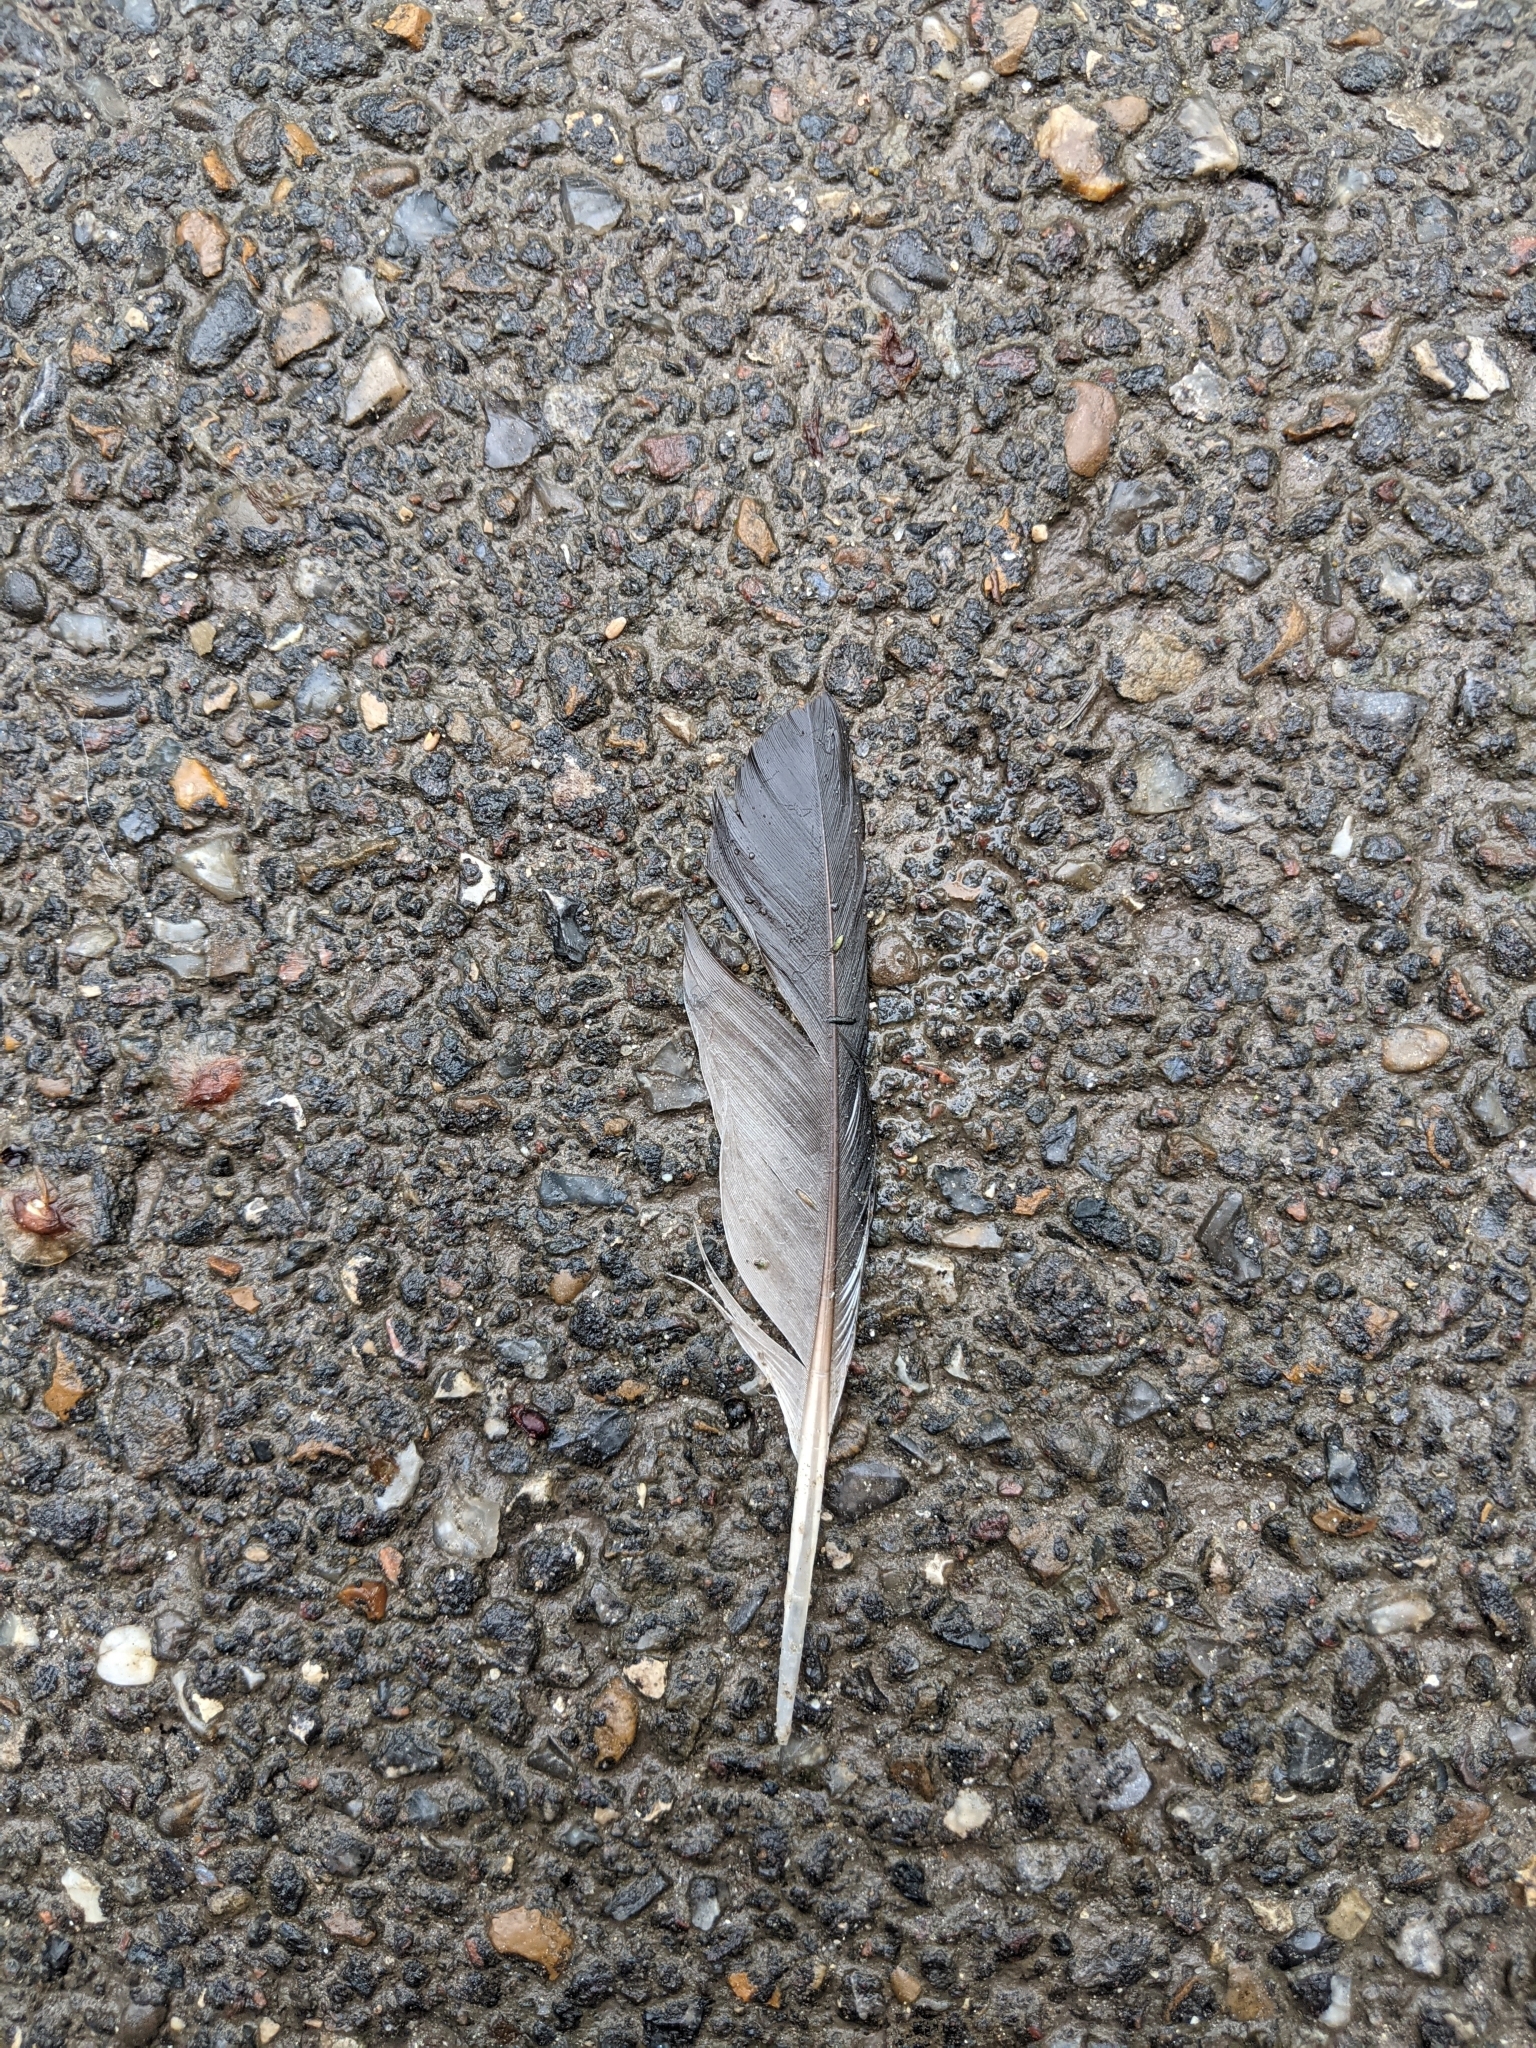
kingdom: Animalia
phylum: Chordata
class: Aves
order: Columbiformes
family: Columbidae
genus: Columba
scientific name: Columba livia
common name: Rock pigeon
